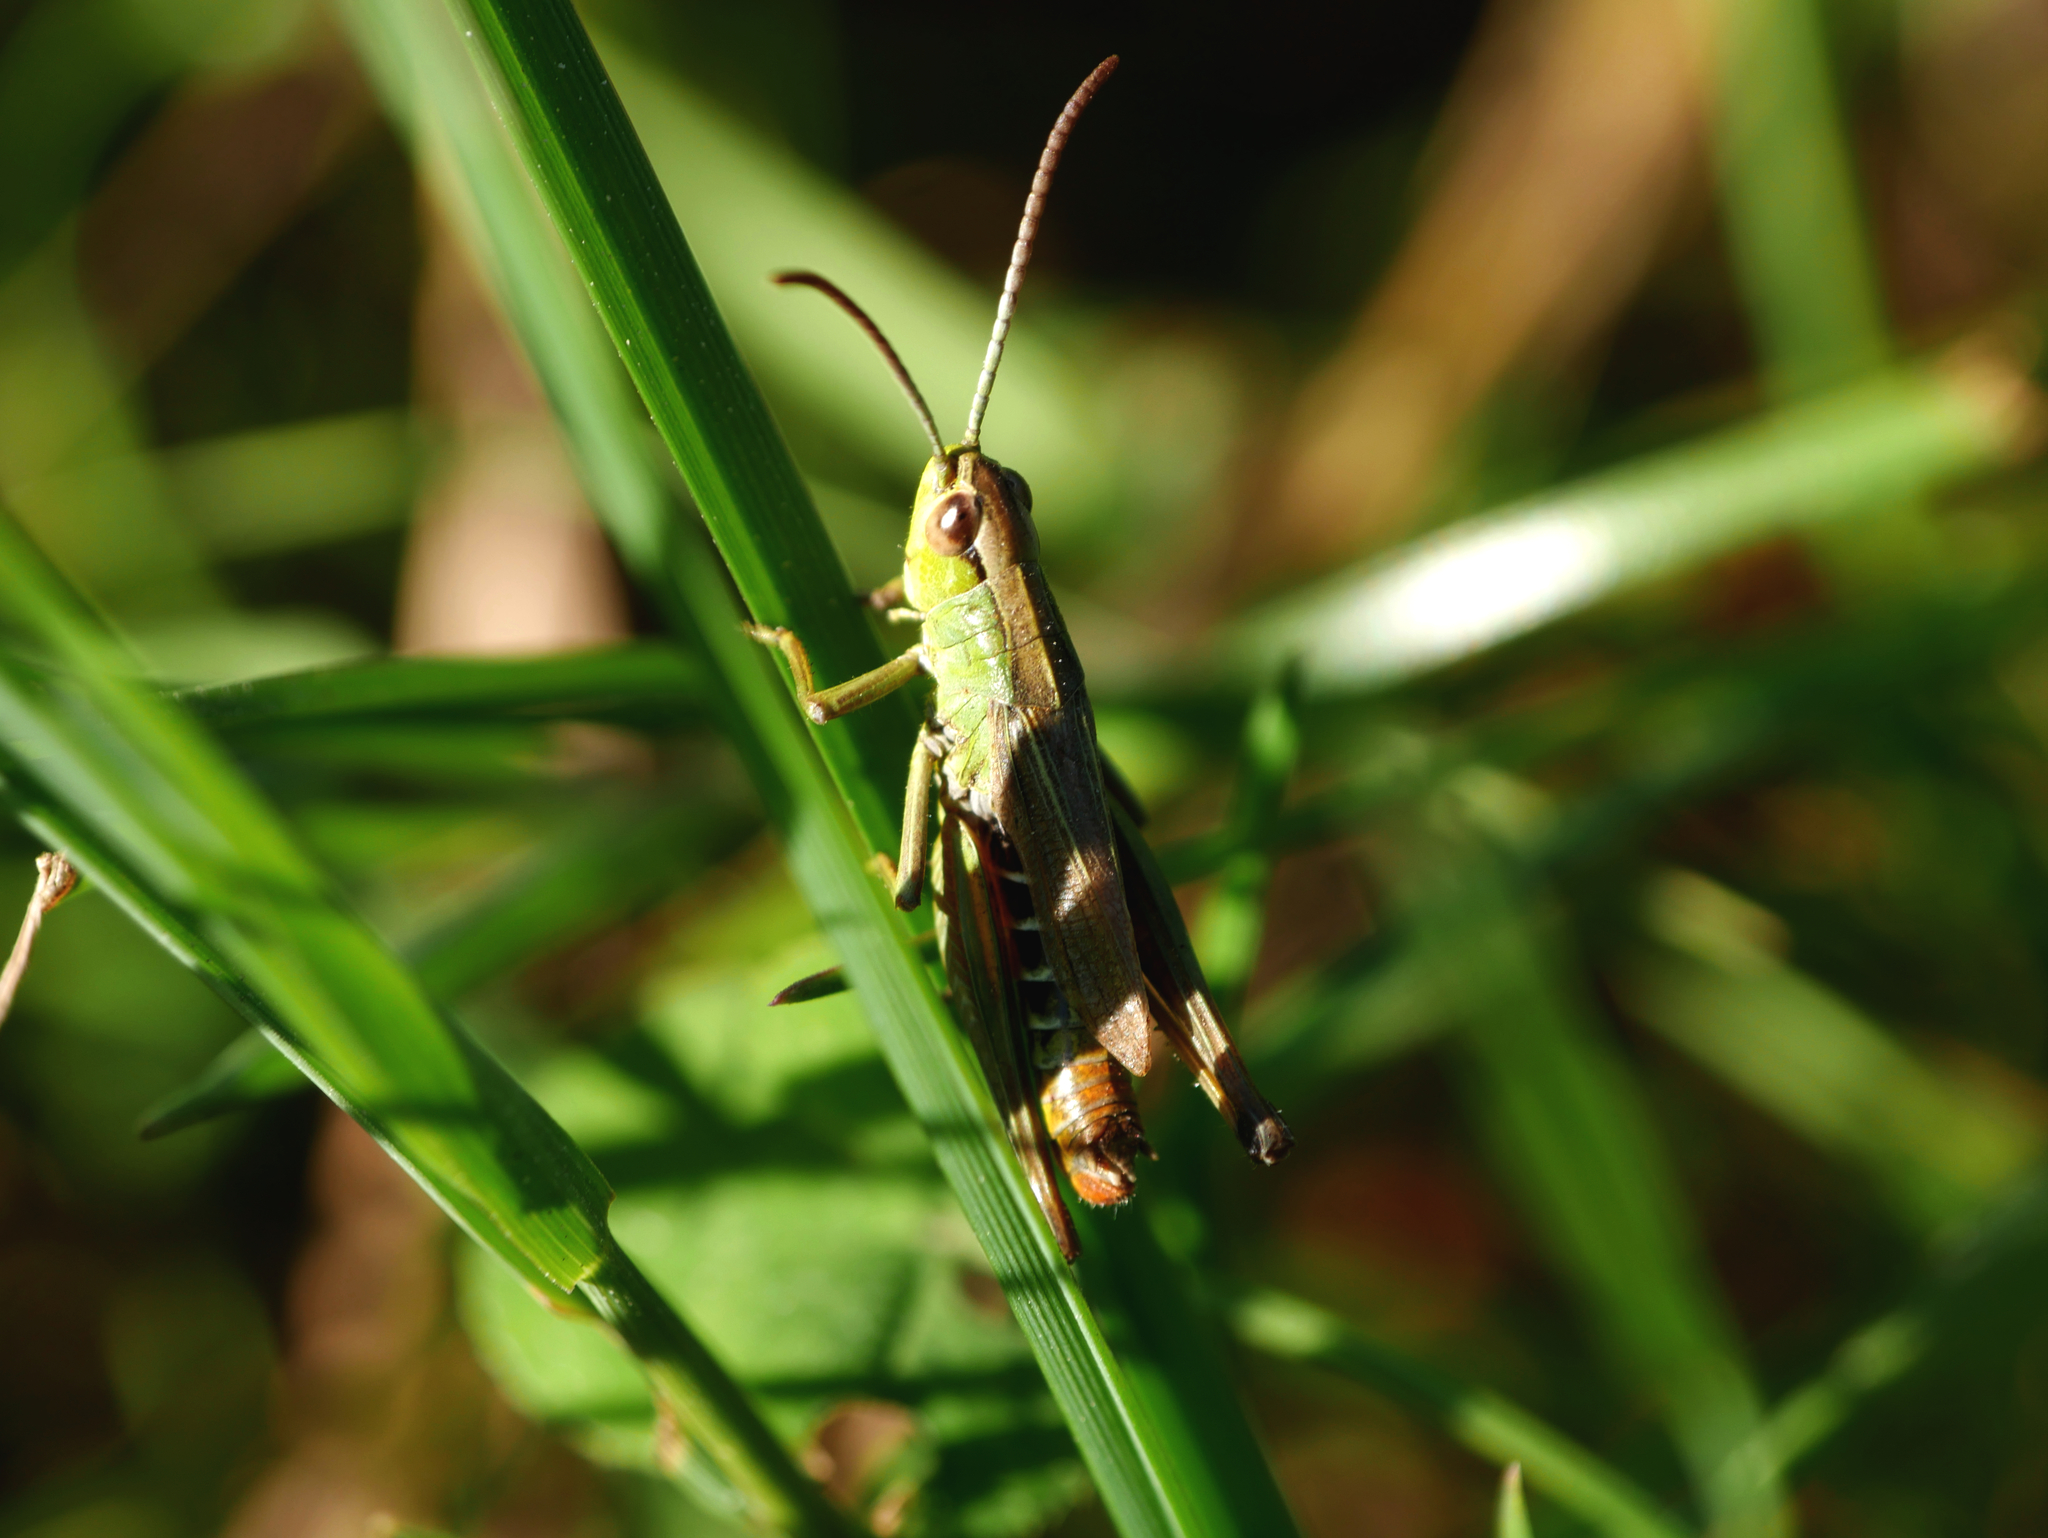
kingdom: Animalia
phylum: Arthropoda
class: Insecta
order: Orthoptera
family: Acrididae
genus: Pseudochorthippus
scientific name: Pseudochorthippus parallelus
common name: Meadow grasshopper
